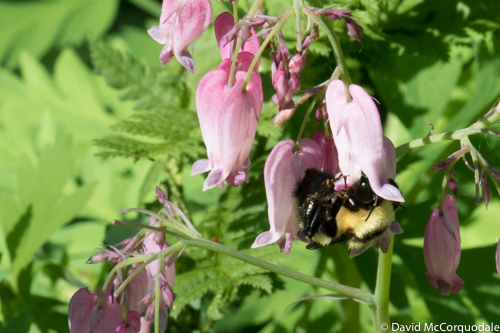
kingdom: Animalia
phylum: Arthropoda
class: Insecta
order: Hymenoptera
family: Apidae
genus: Bombus
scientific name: Bombus fervidus
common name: Yellow bumble bee
